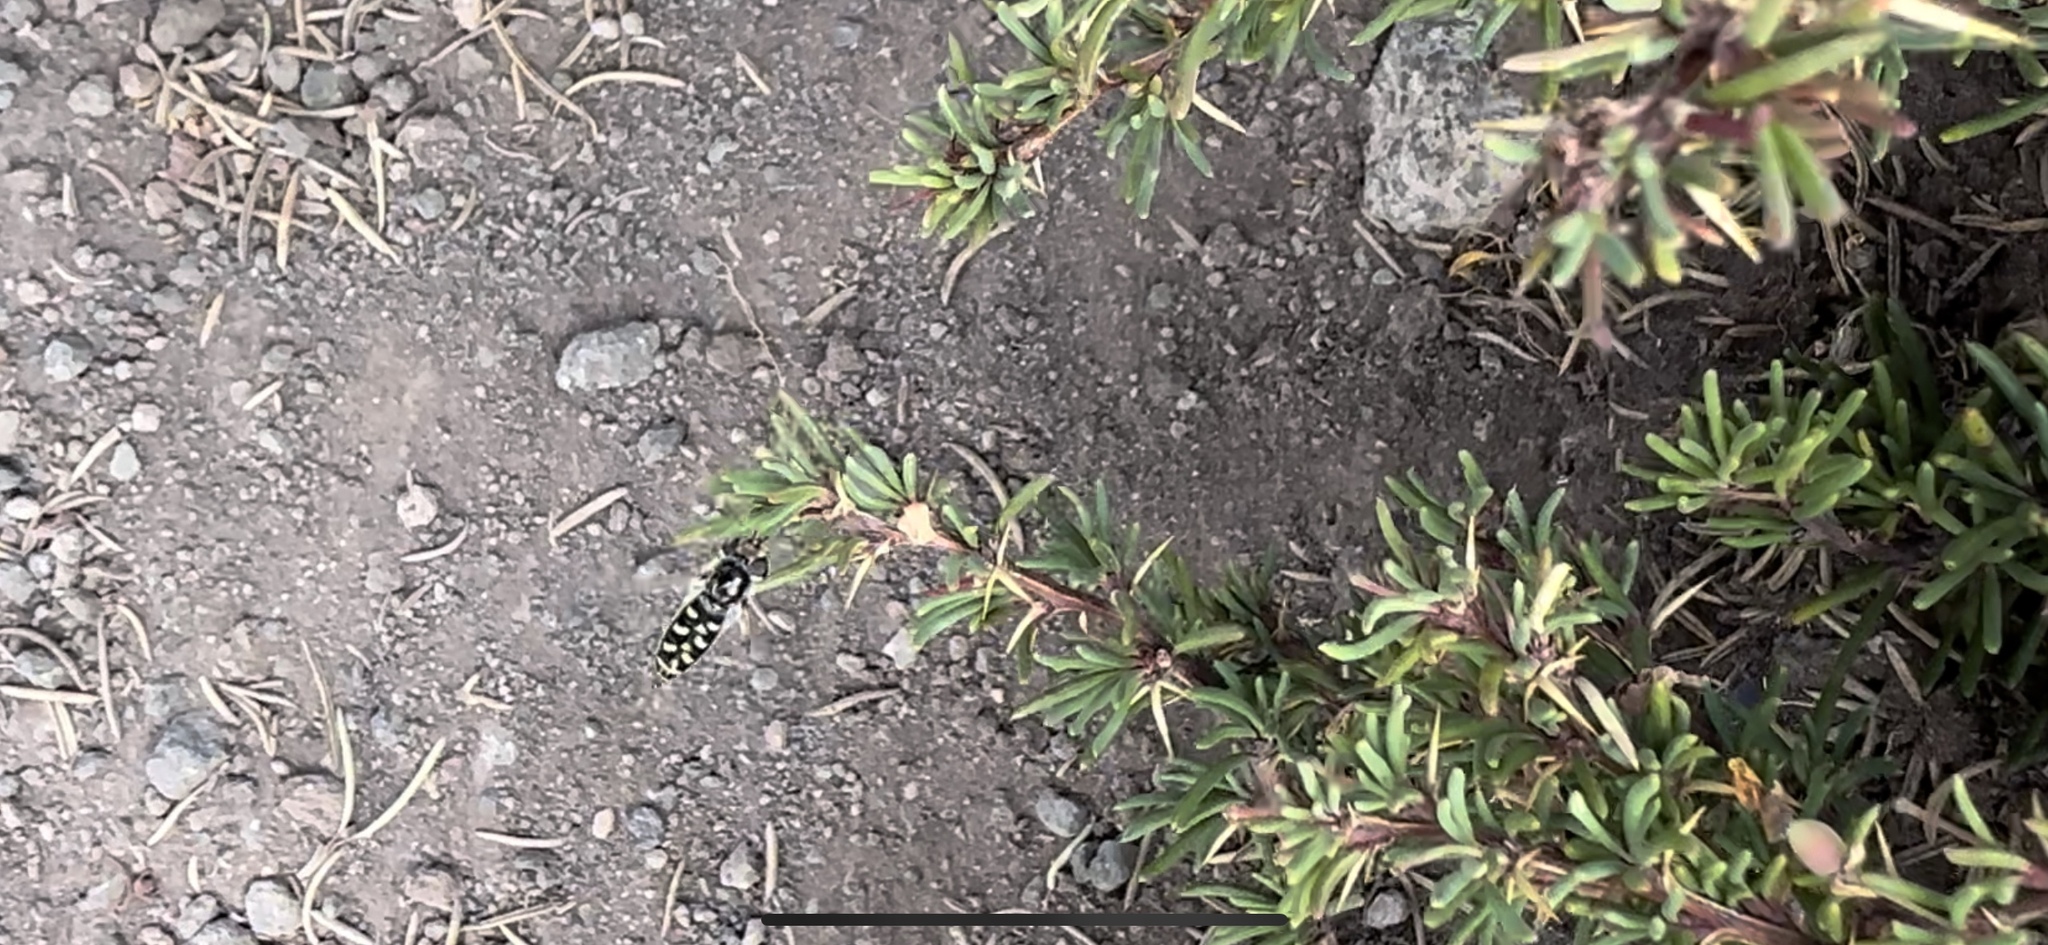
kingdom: Animalia
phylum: Arthropoda
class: Insecta
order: Diptera
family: Syrphidae
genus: Austroscaeva
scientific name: Austroscaeva melanostoma
